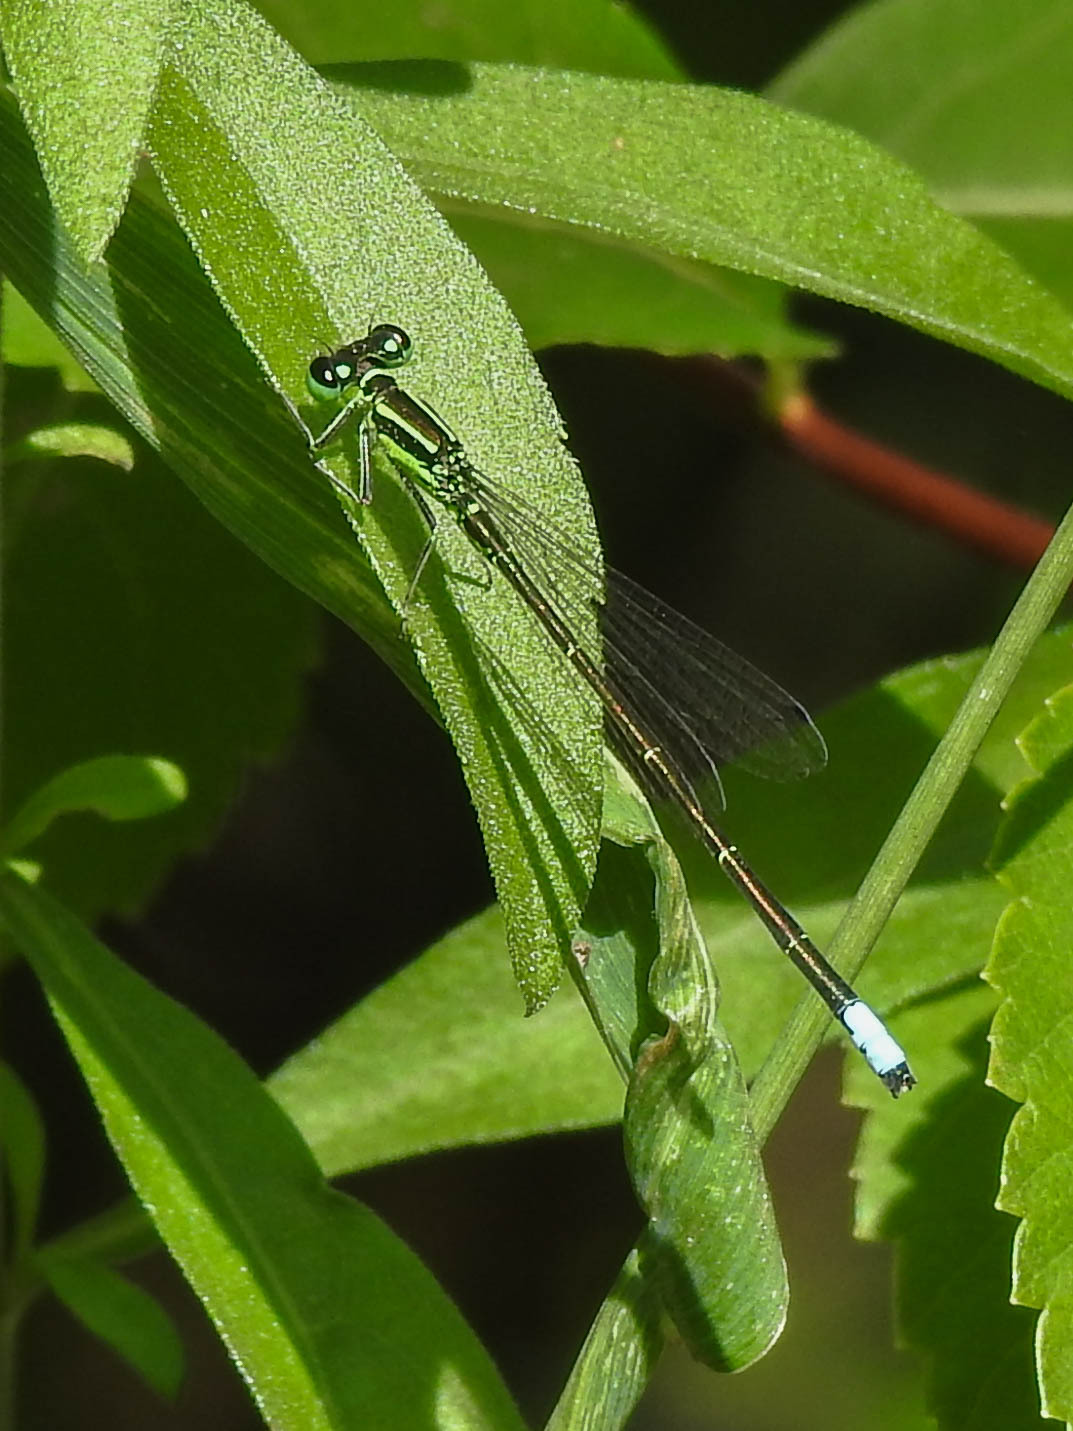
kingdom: Animalia
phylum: Arthropoda
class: Insecta
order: Odonata
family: Coenagrionidae
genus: Ischnura
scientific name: Ischnura verticalis
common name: Eastern forktail
